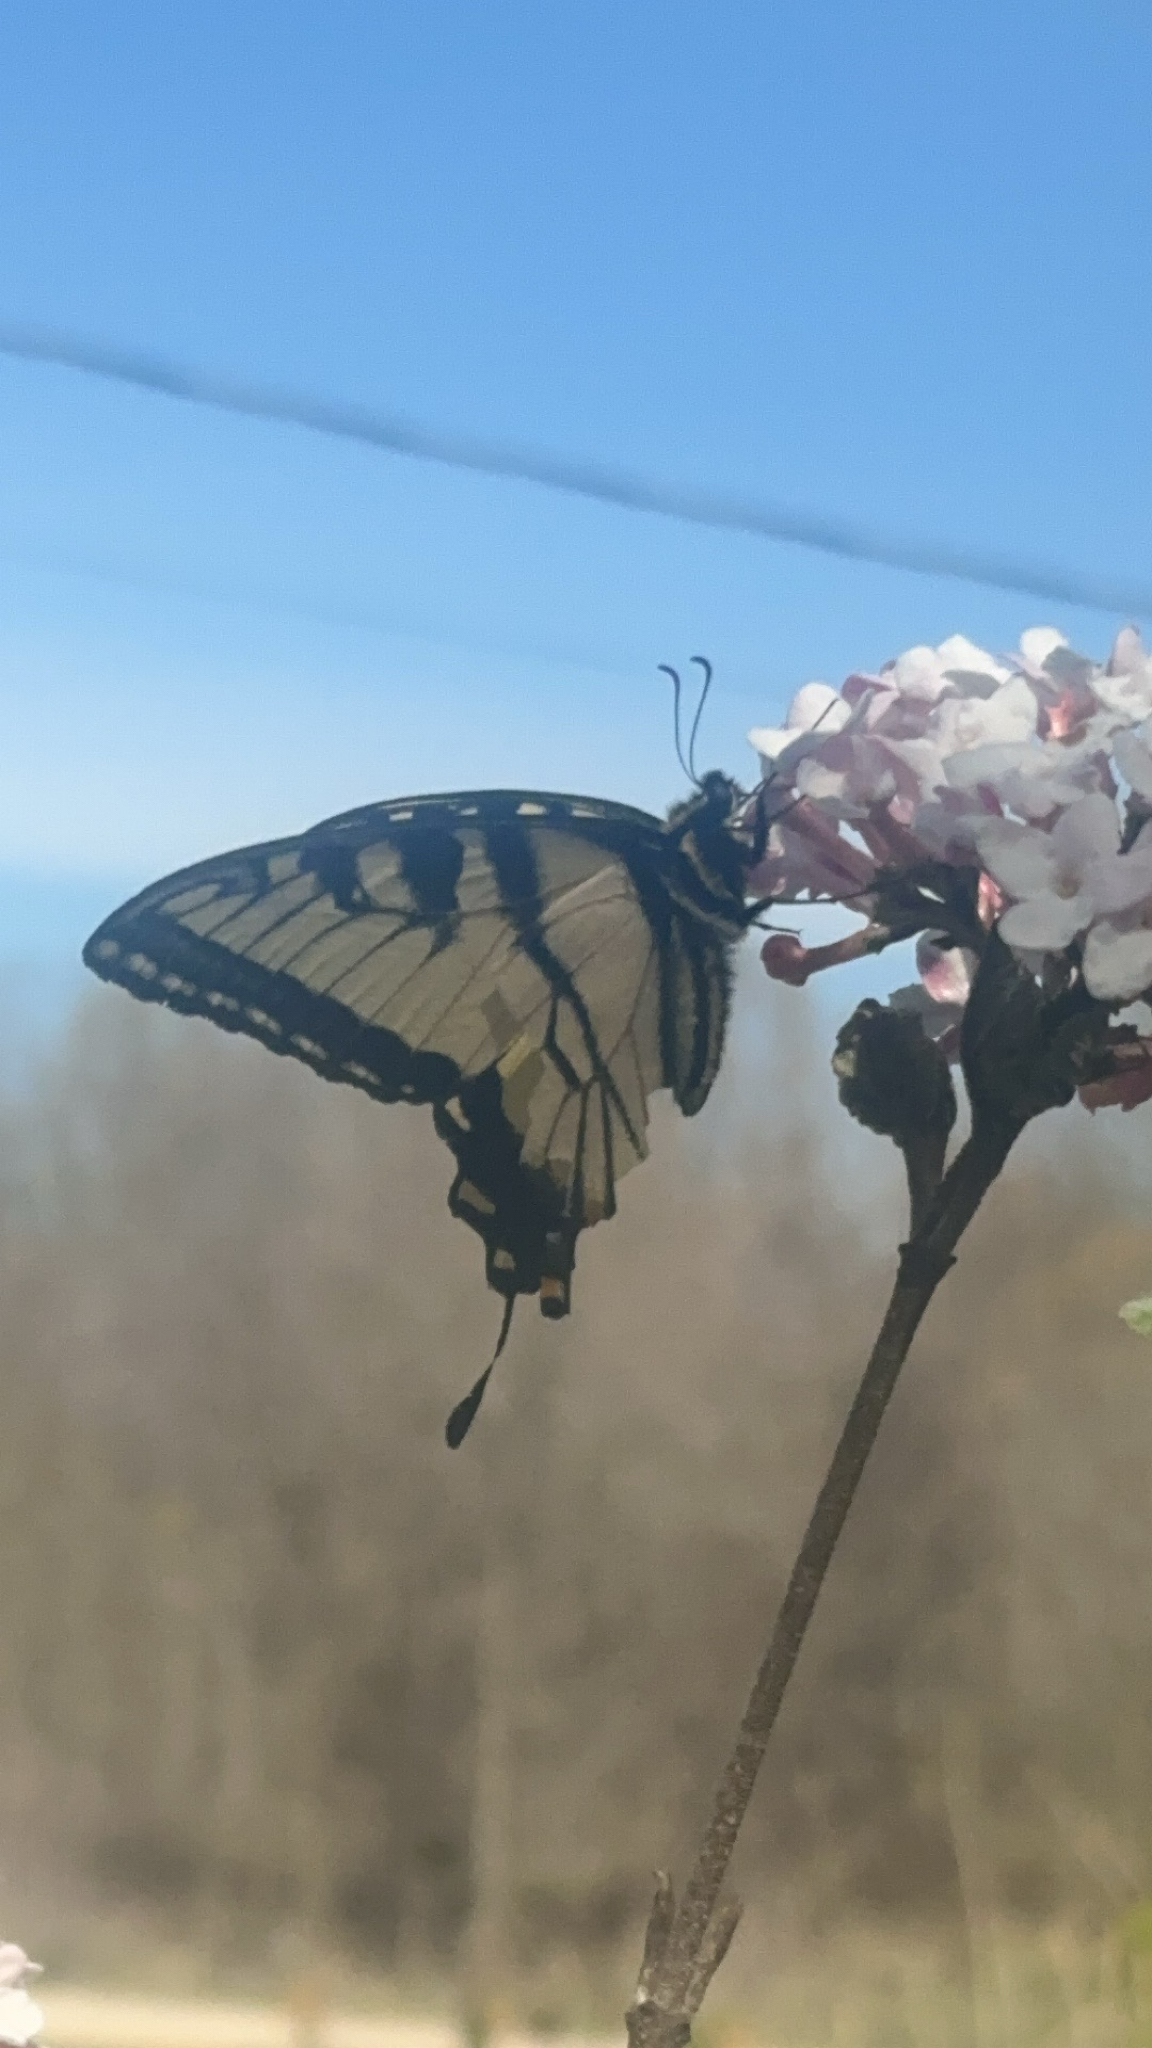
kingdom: Animalia
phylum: Arthropoda
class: Insecta
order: Lepidoptera
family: Papilionidae
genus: Papilio
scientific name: Papilio glaucus
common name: Tiger swallowtail
